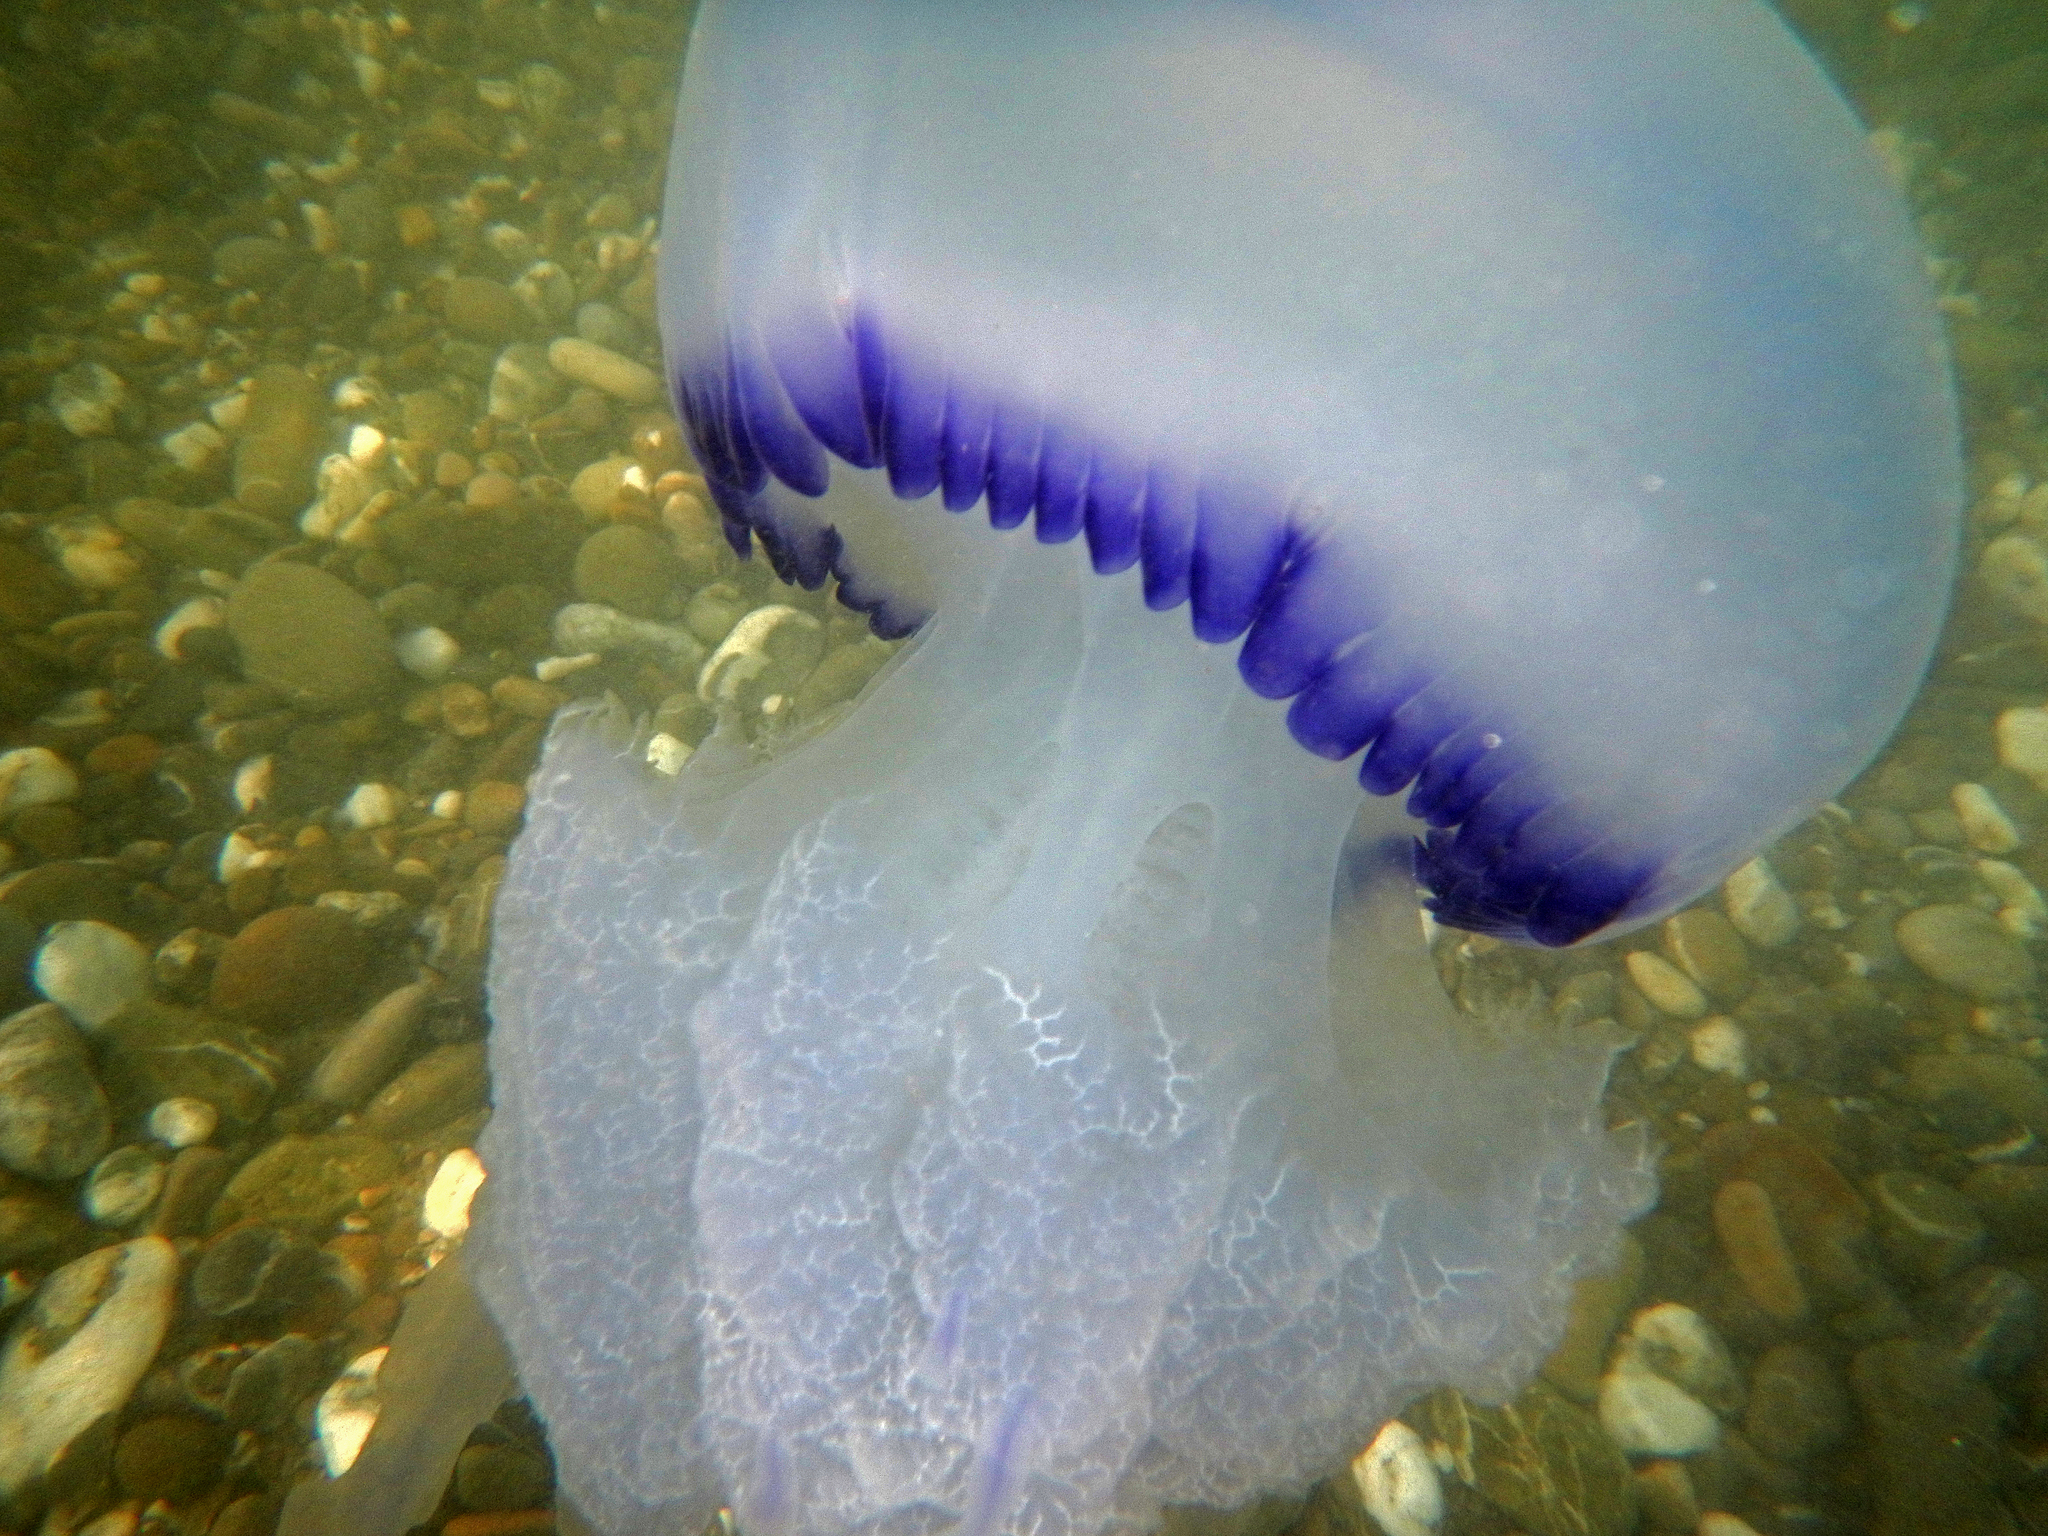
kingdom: Animalia
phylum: Cnidaria
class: Scyphozoa
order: Rhizostomeae
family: Rhizostomatidae
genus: Rhizostoma
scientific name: Rhizostoma pulmo
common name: Barrel jellyfish
